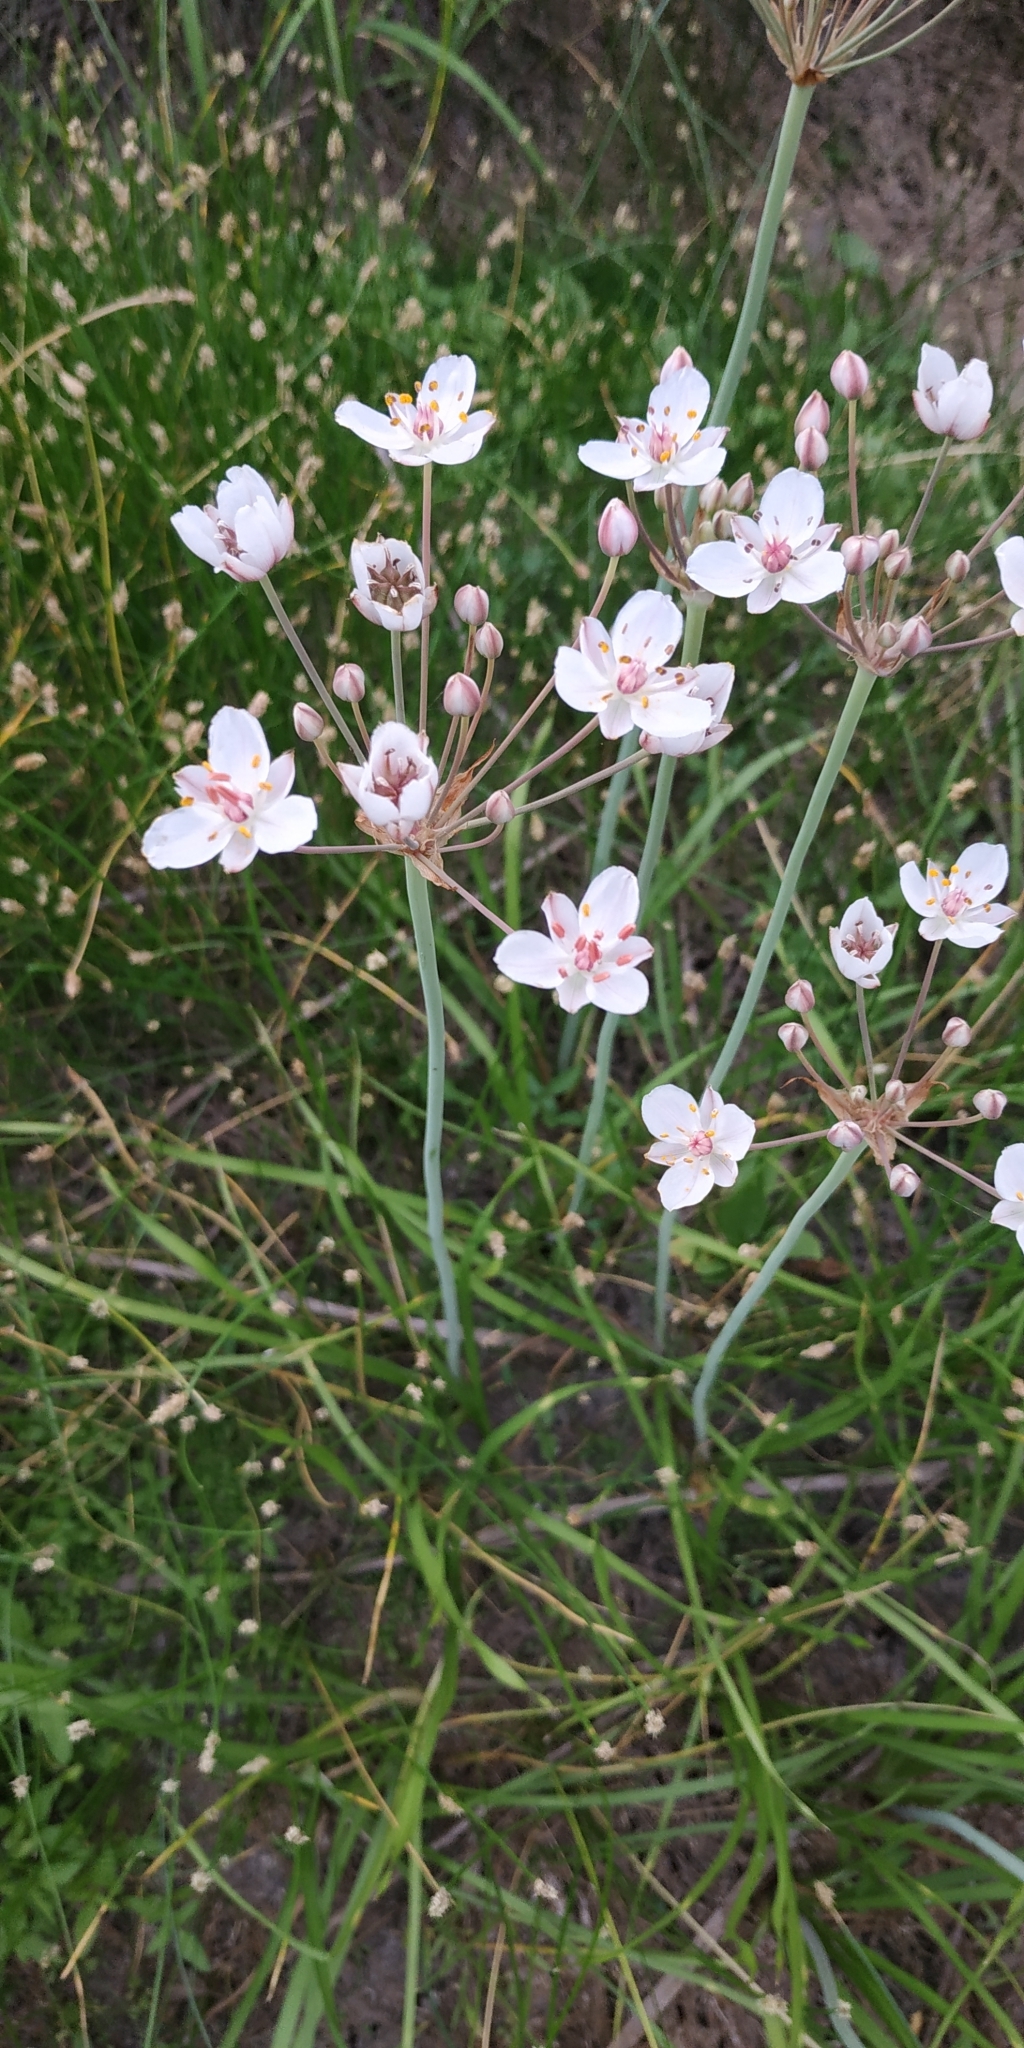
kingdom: Plantae
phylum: Tracheophyta
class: Liliopsida
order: Alismatales
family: Butomaceae
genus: Butomus
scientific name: Butomus umbellatus
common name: Flowering-rush
